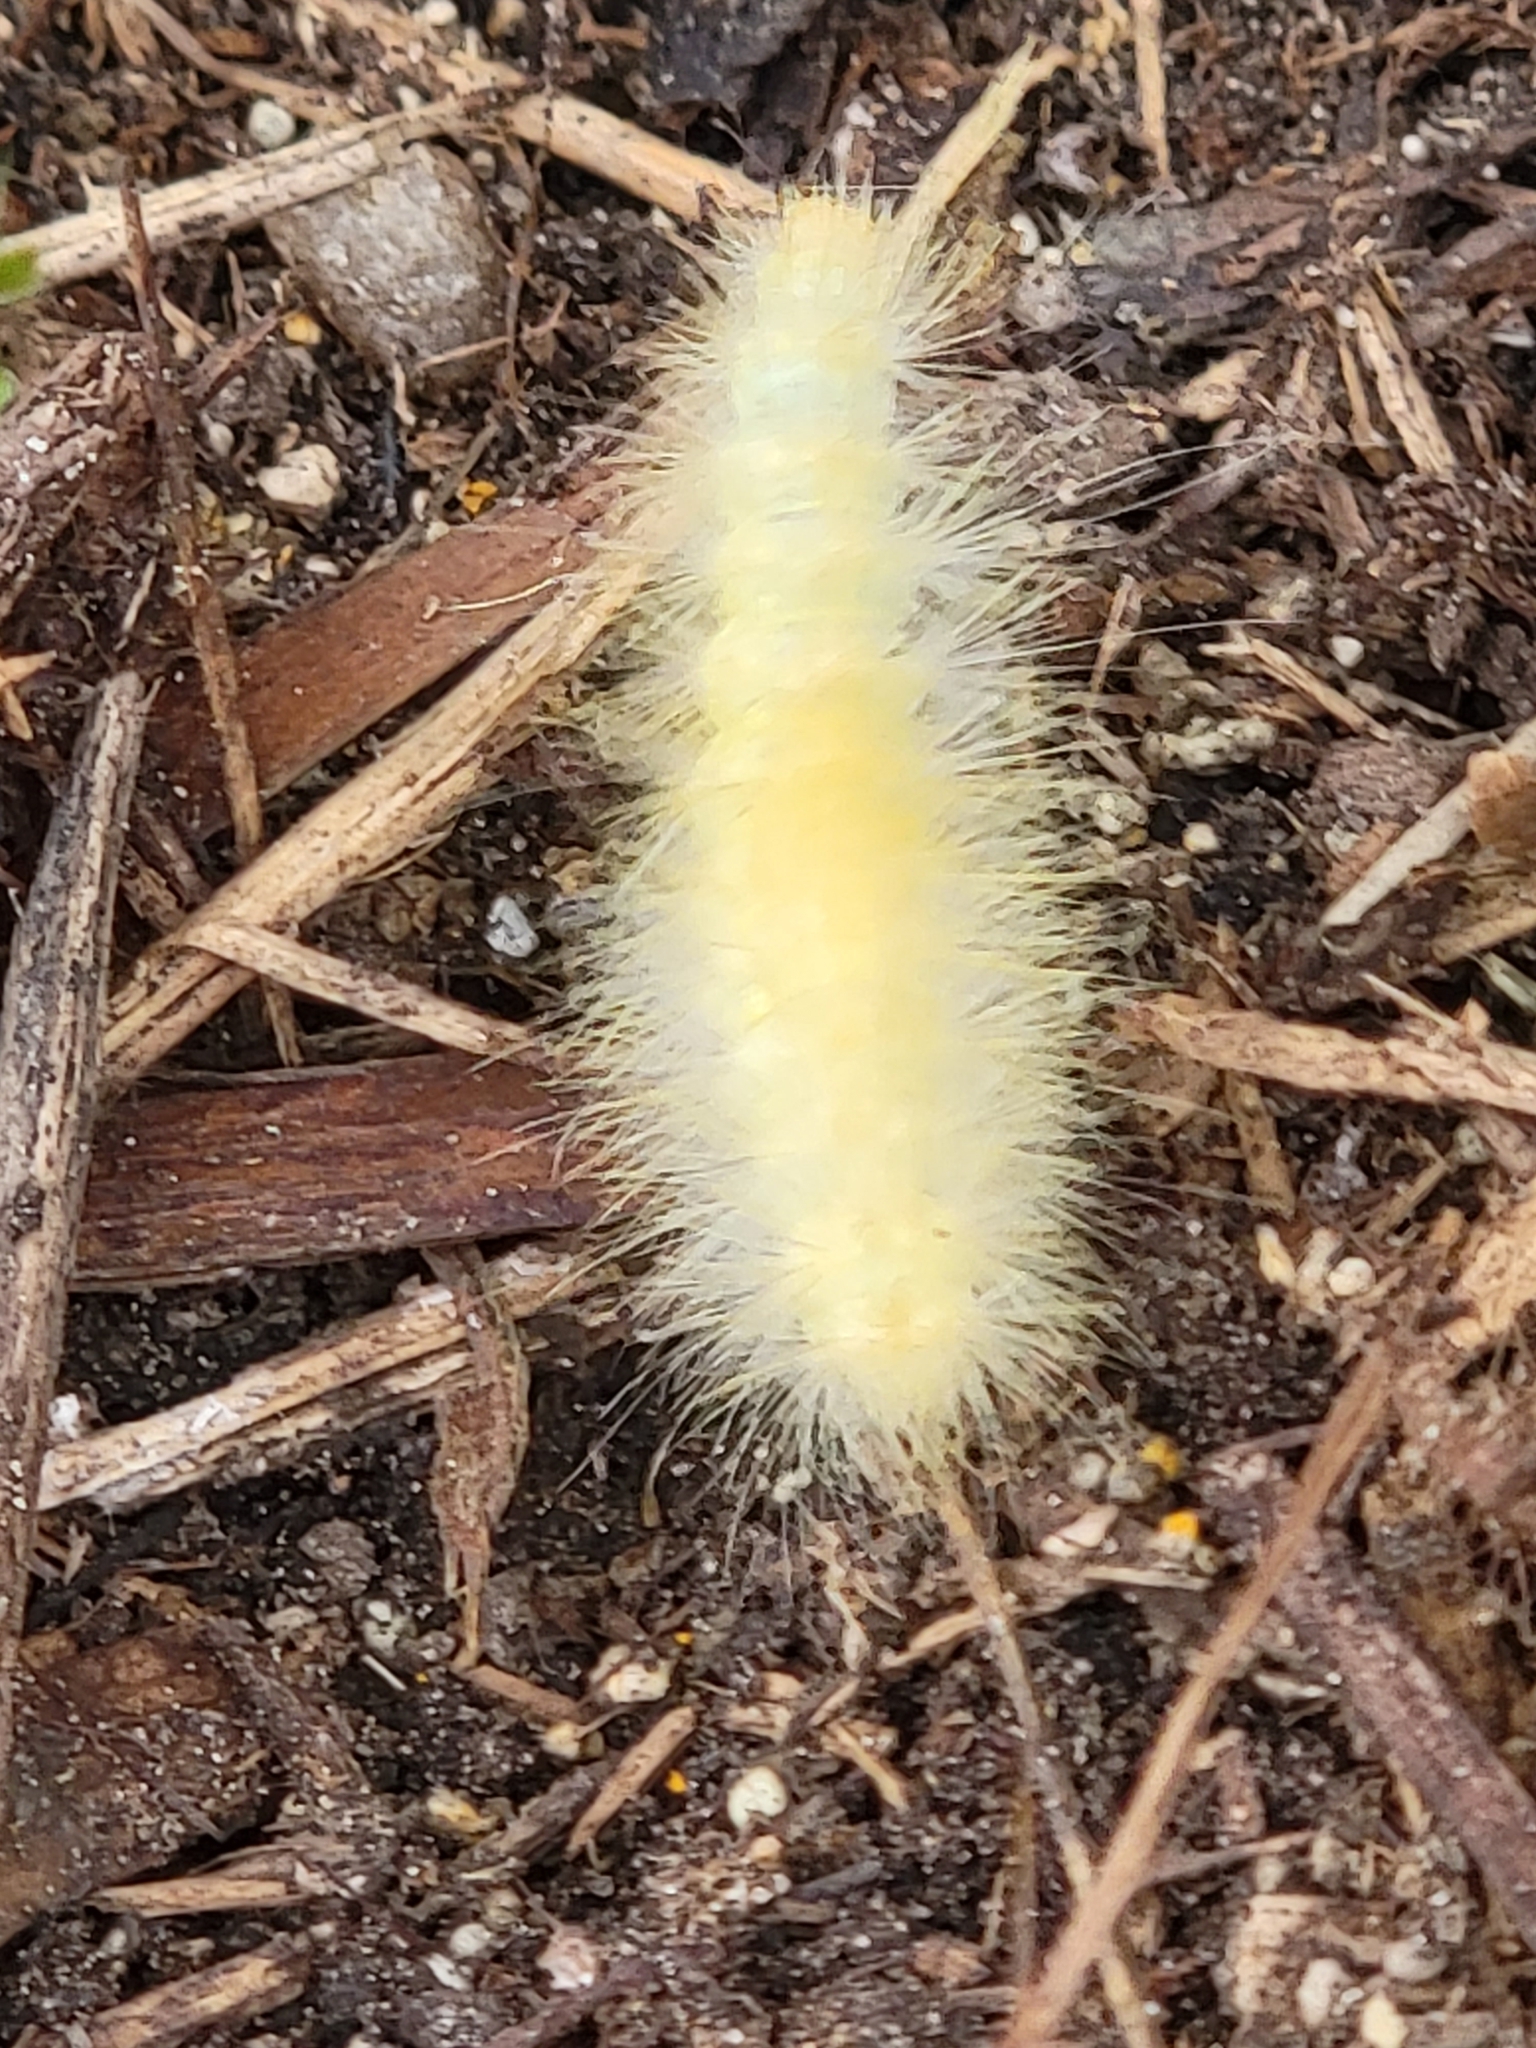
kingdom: Animalia
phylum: Arthropoda
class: Insecta
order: Lepidoptera
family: Erebidae
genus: Spilosoma
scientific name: Spilosoma virginica
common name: Virginia tiger moth
